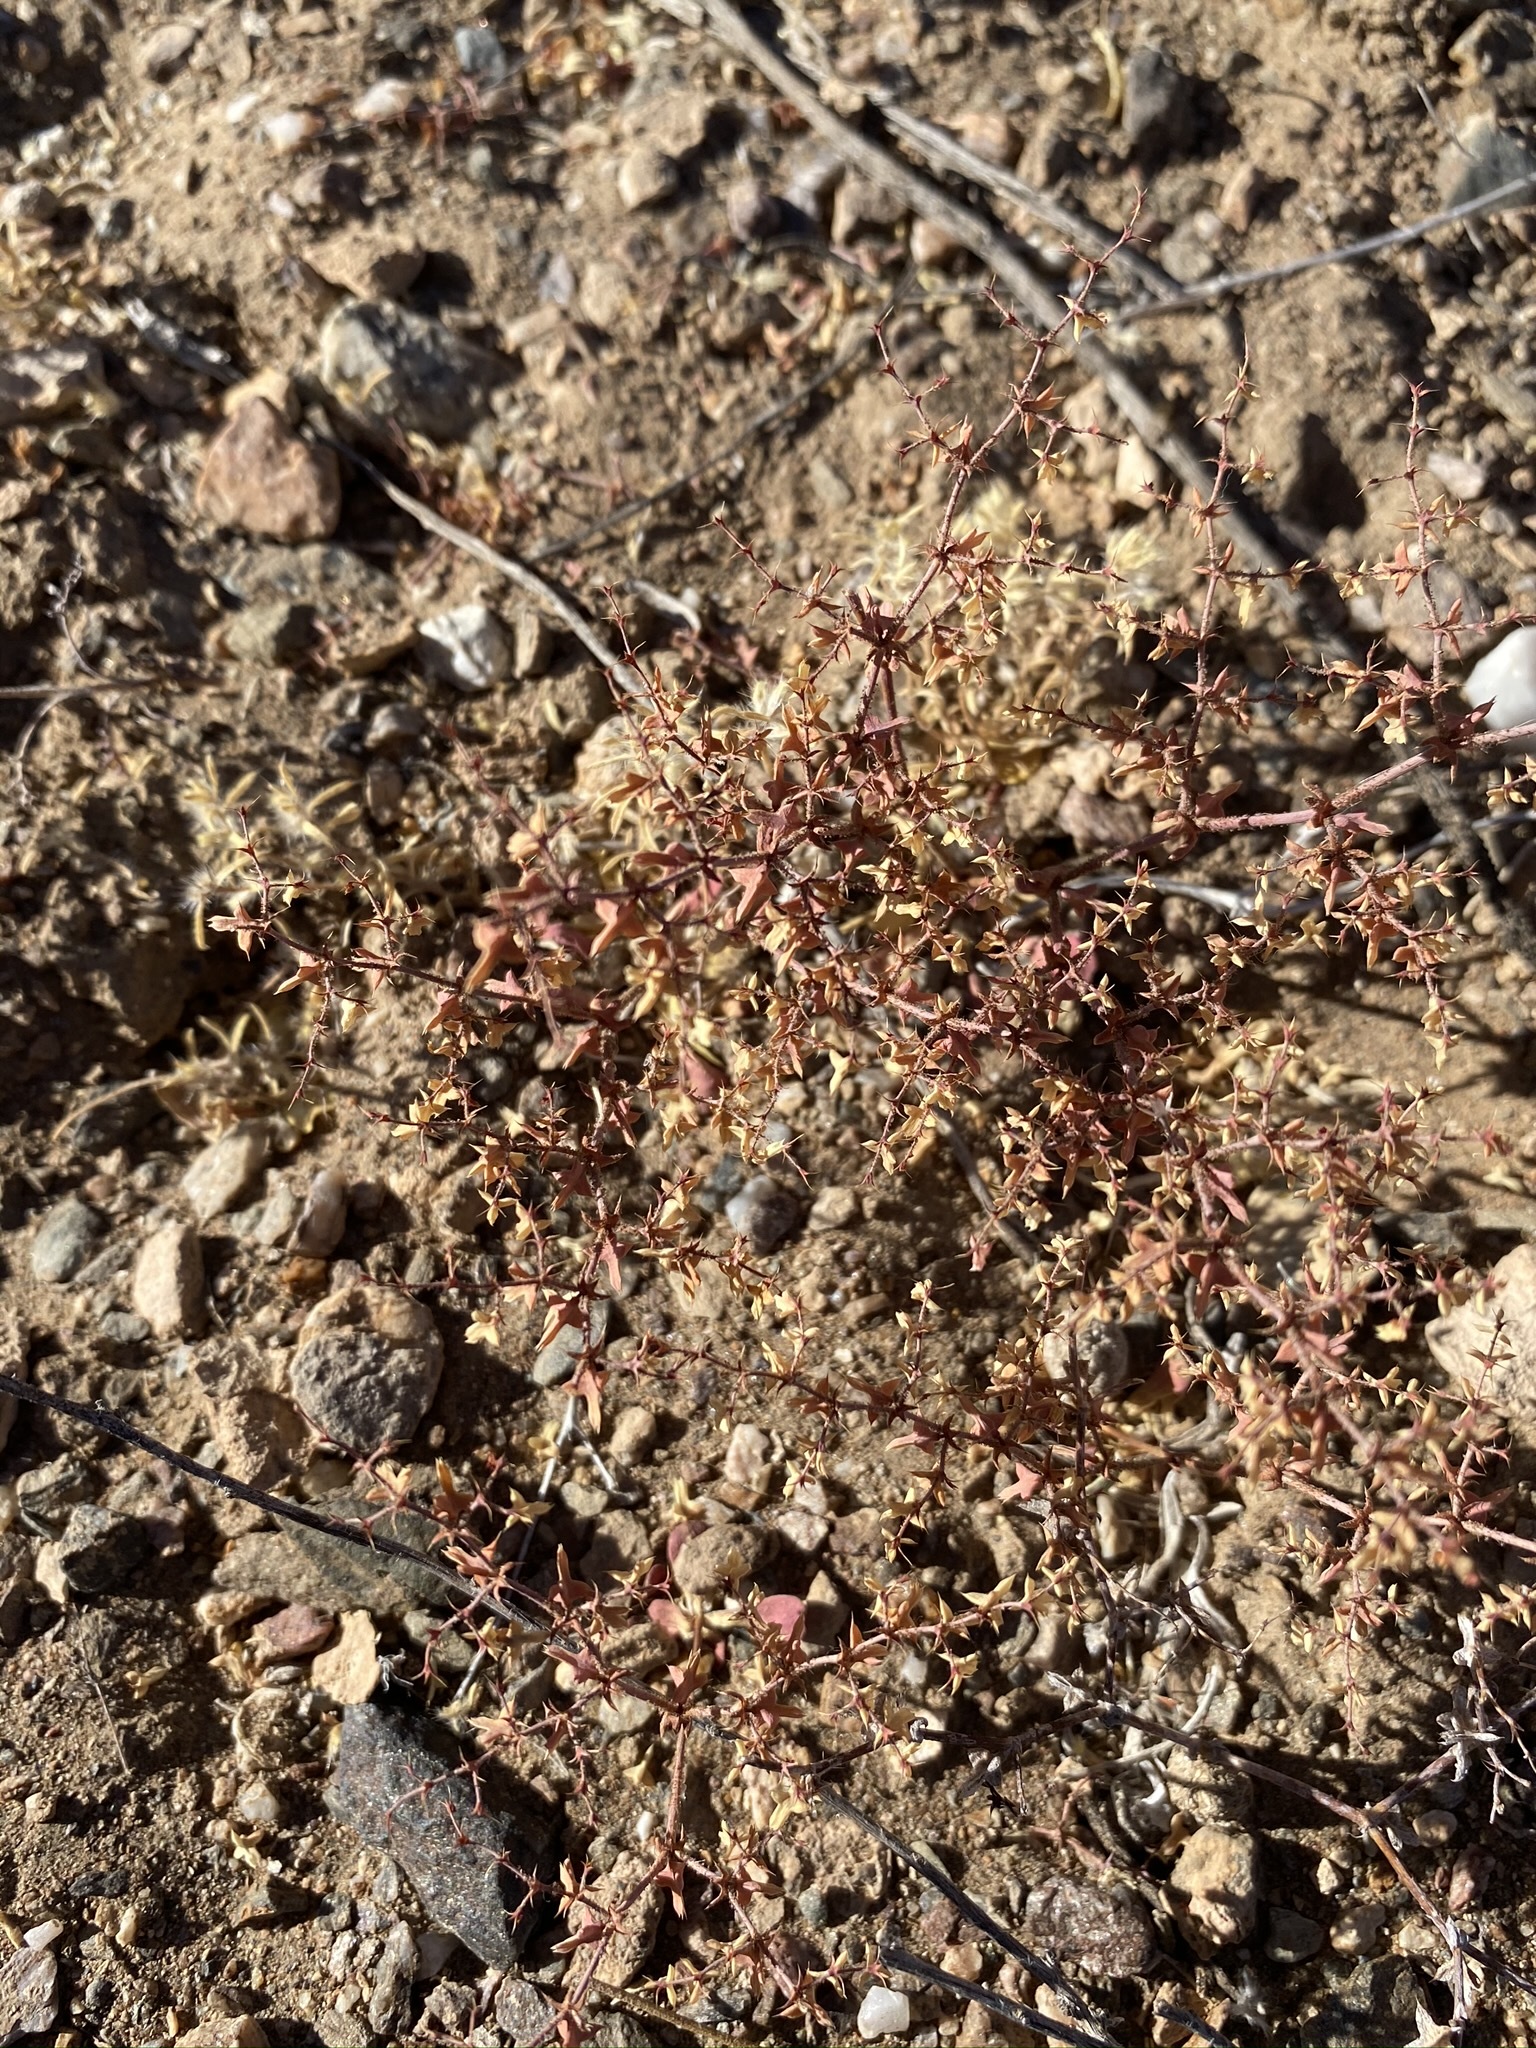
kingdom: Plantae
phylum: Tracheophyta
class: Magnoliopsida
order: Caryophyllales
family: Polygonaceae
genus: Centrostegia
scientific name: Centrostegia thurberi
